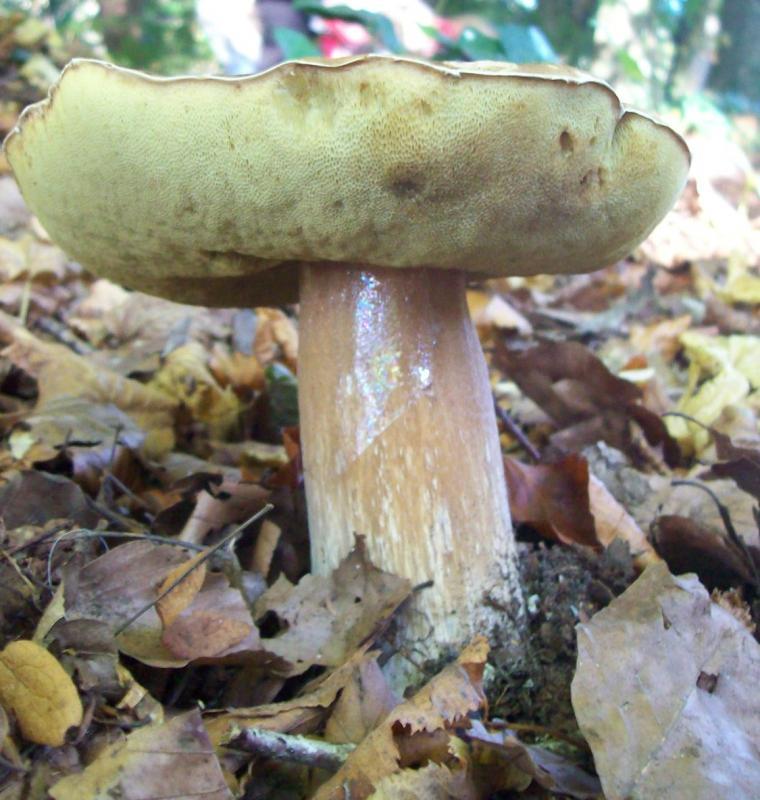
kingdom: Fungi
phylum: Basidiomycota
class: Agaricomycetes
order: Boletales
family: Boletaceae
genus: Boletus
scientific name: Boletus edulis
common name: Cep
